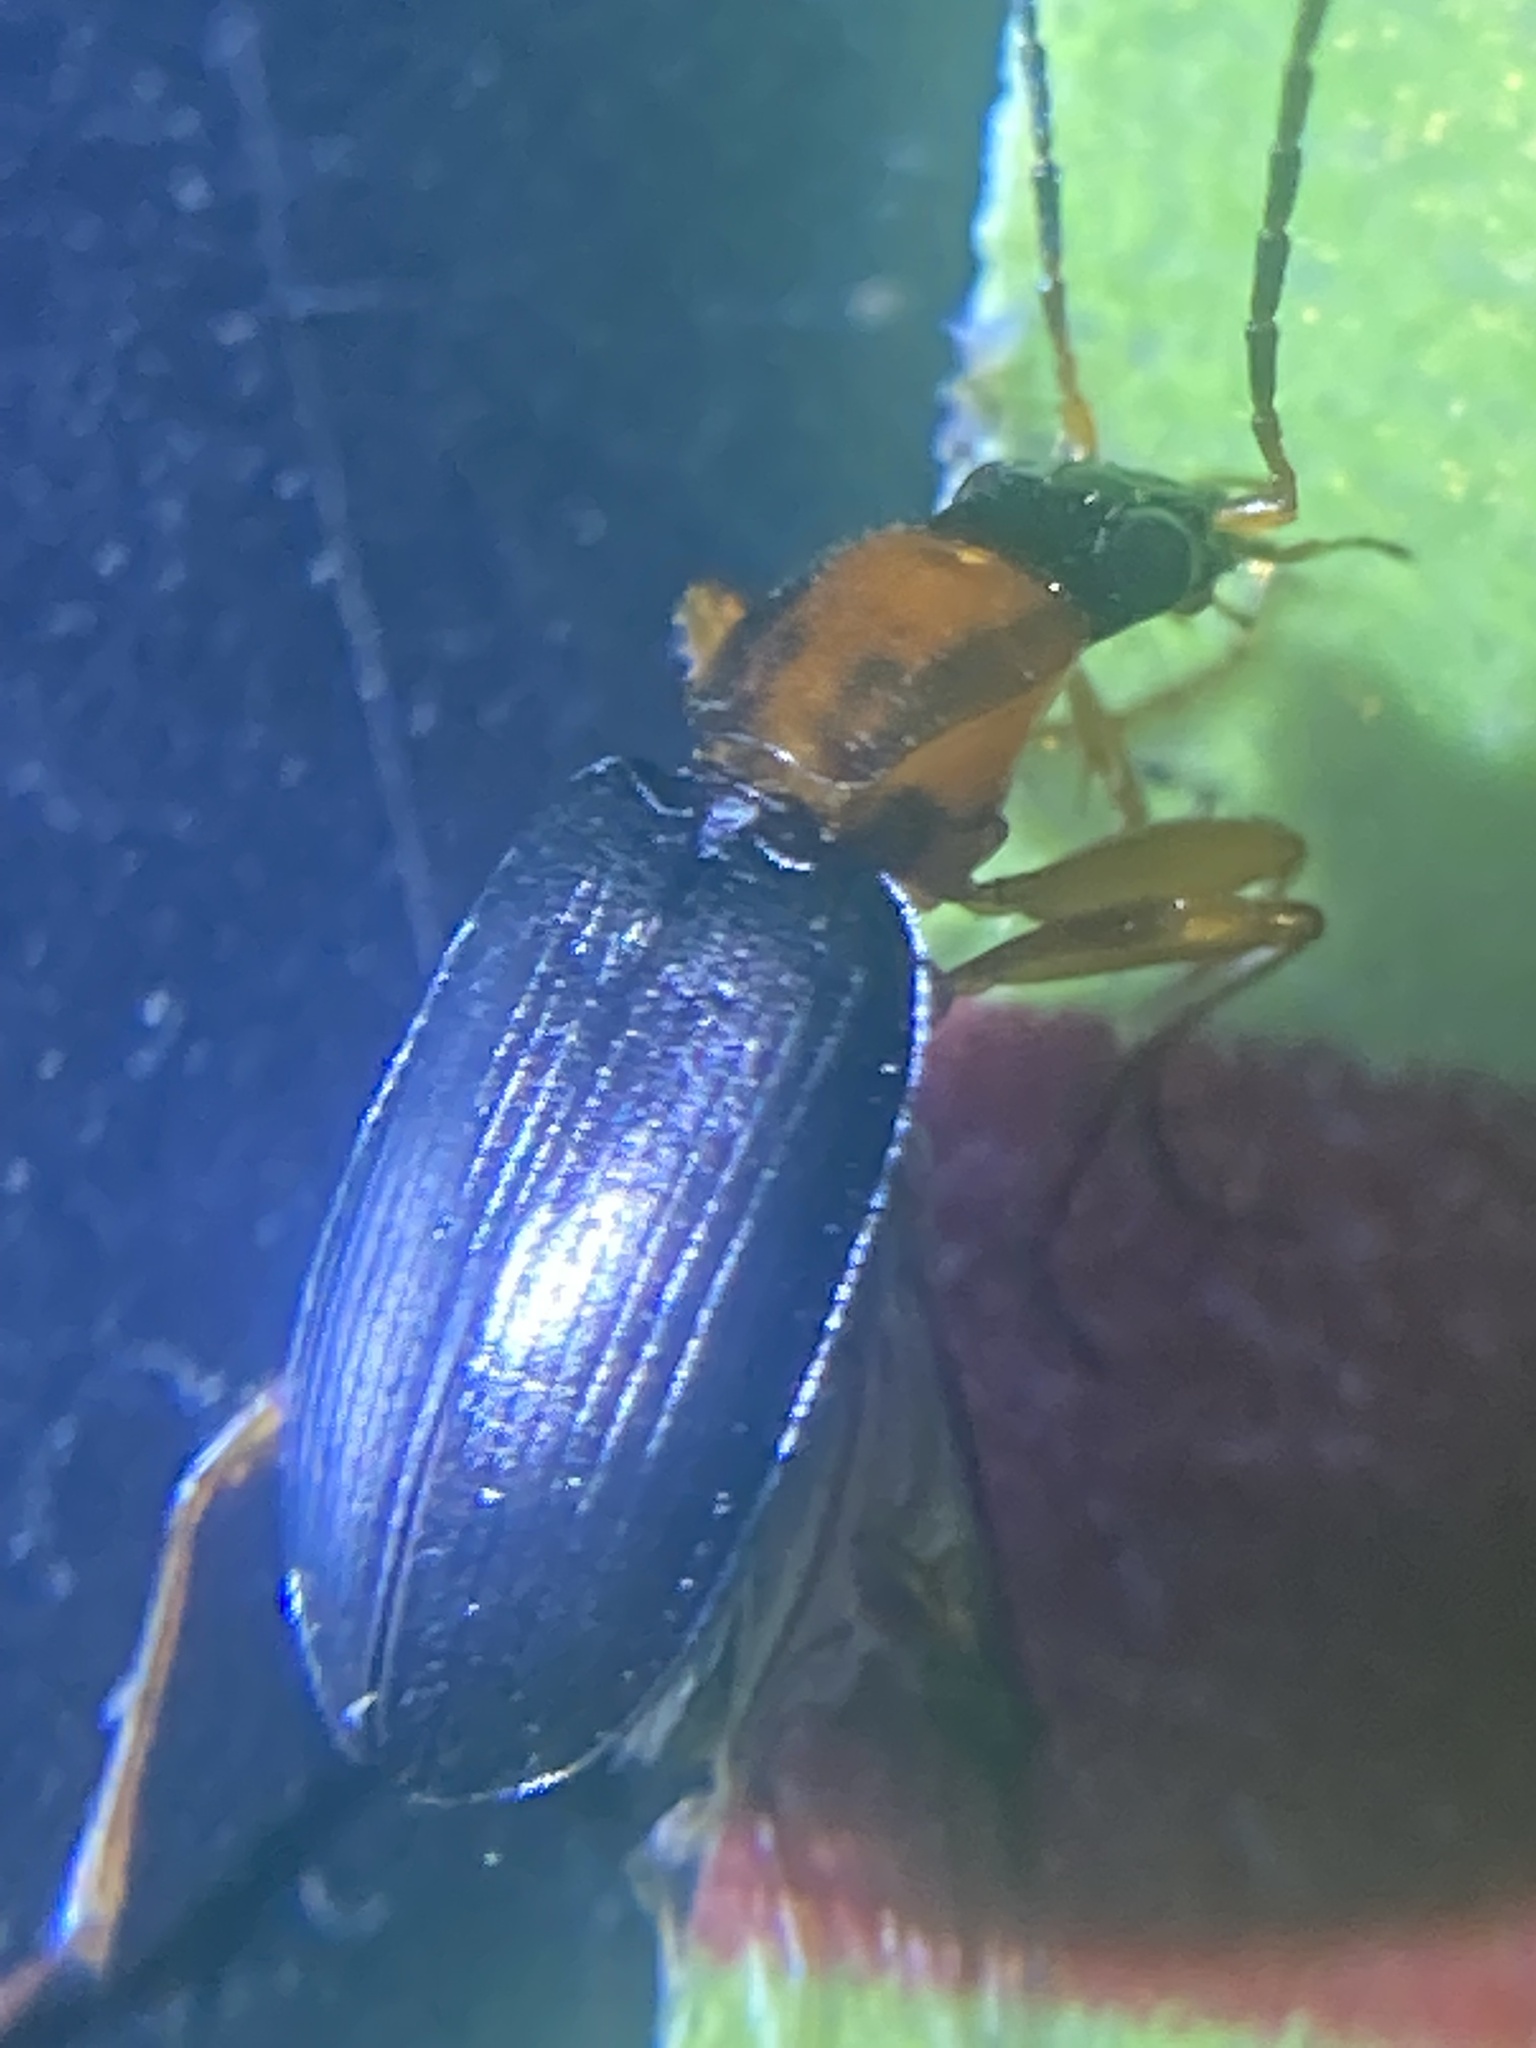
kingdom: Animalia
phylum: Arthropoda
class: Insecta
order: Coleoptera
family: Carabidae
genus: Agonum
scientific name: Agonum decorum
